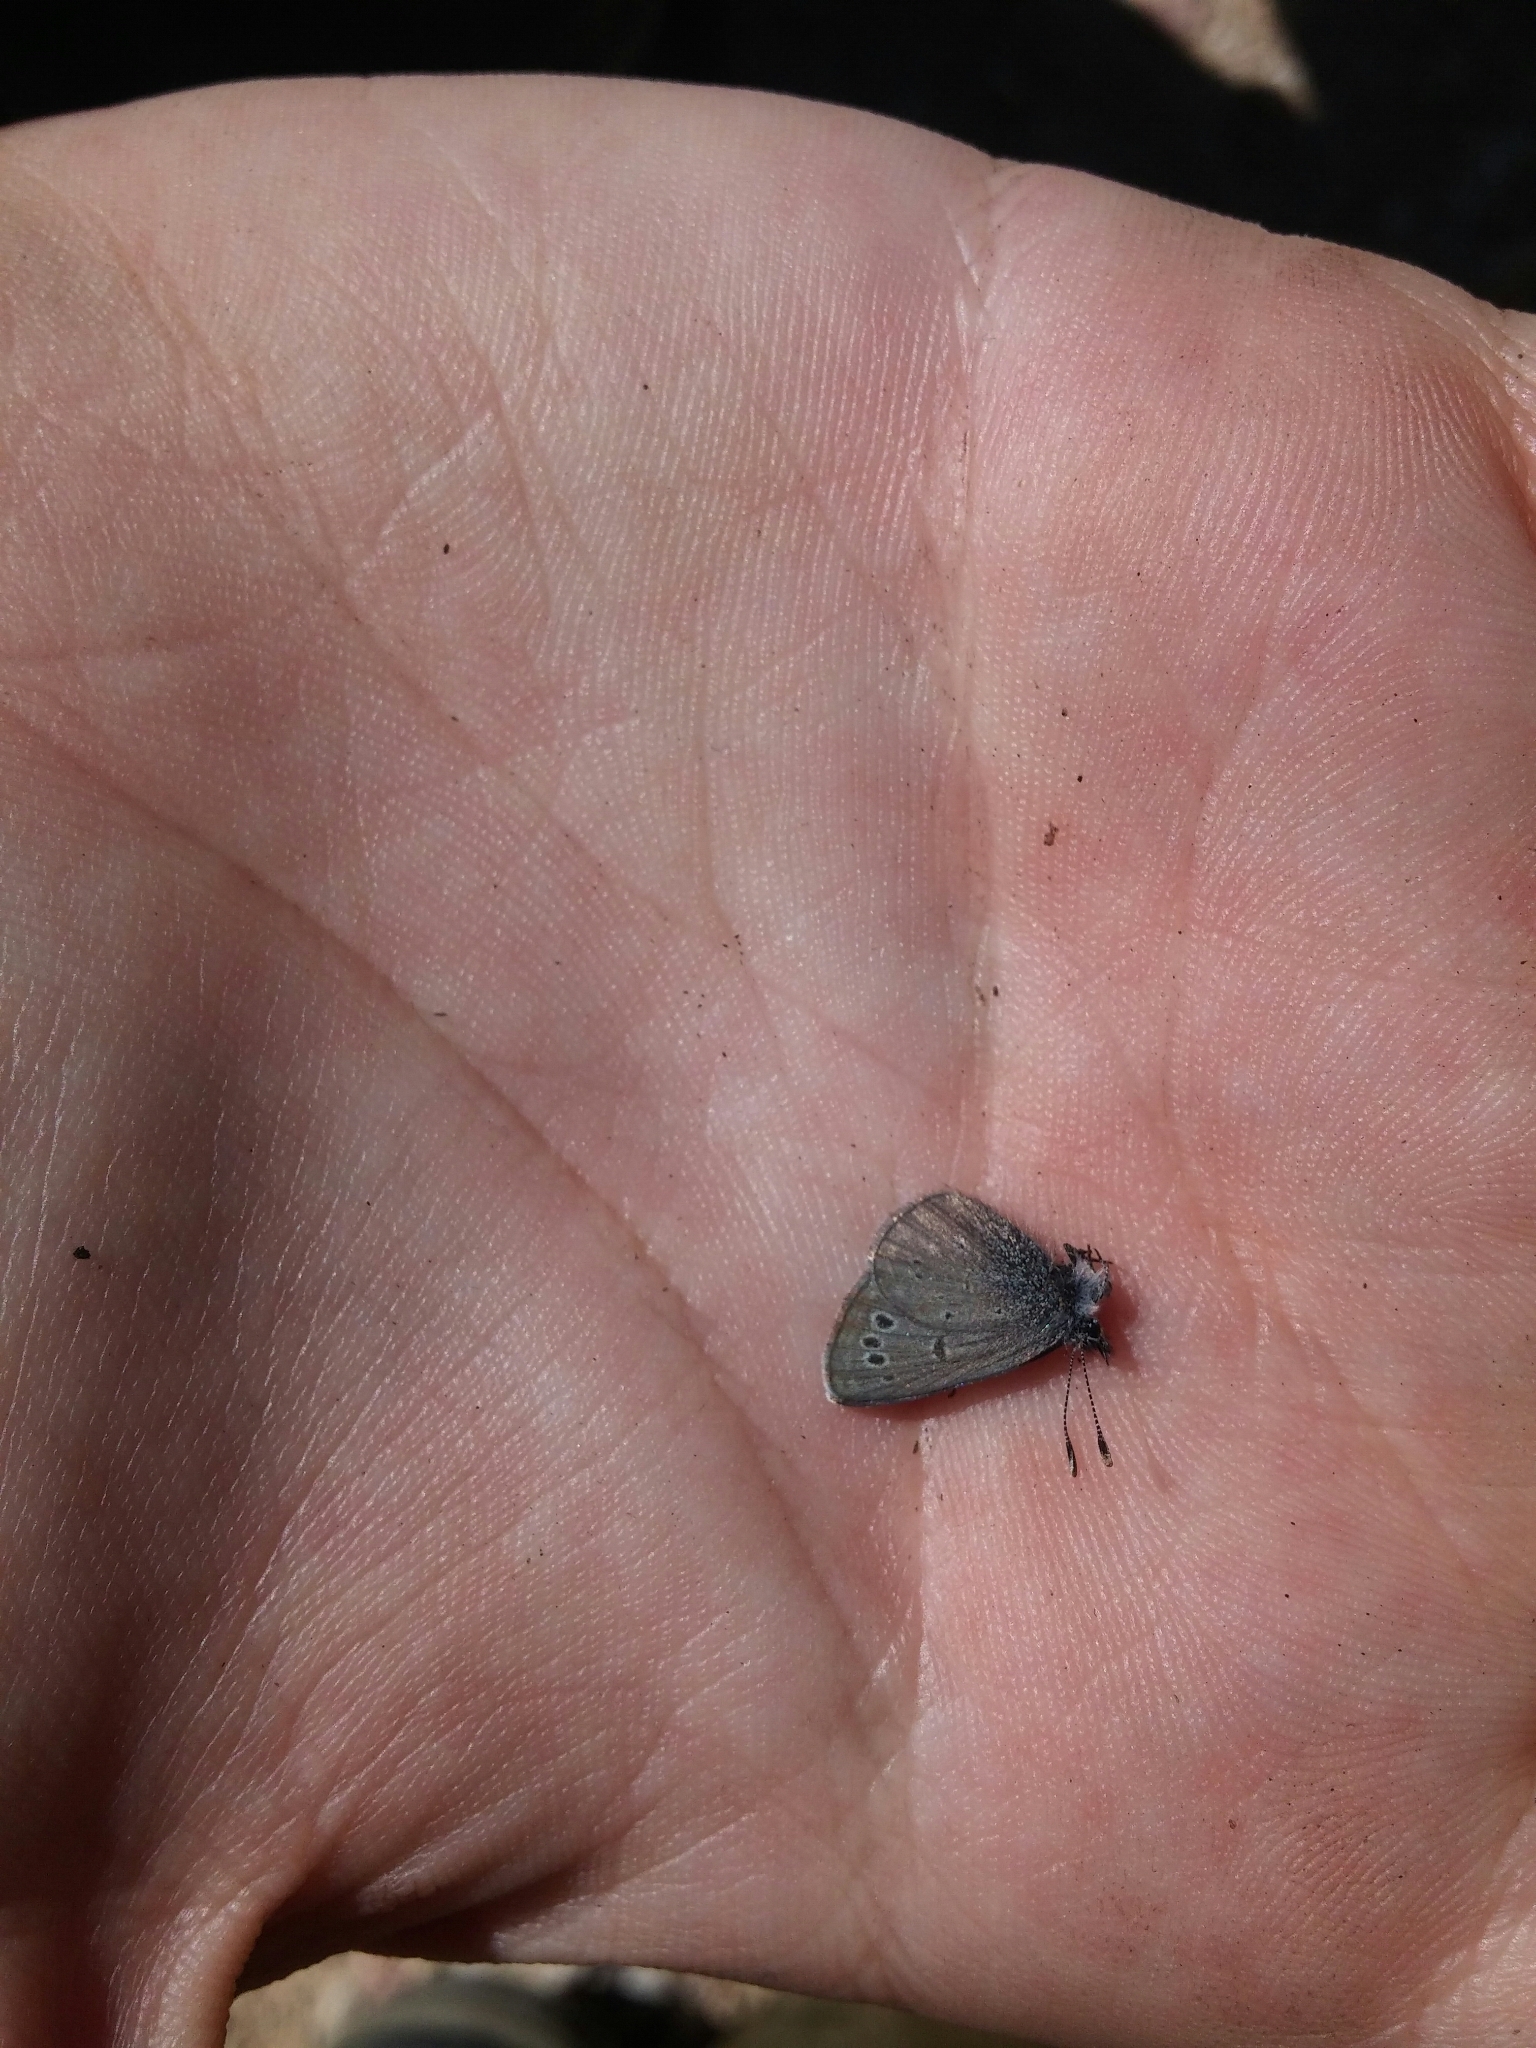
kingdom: Animalia
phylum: Arthropoda
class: Insecta
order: Lepidoptera
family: Lycaenidae
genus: Glaucopsyche
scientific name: Glaucopsyche melanops
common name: Black-eyed blue
